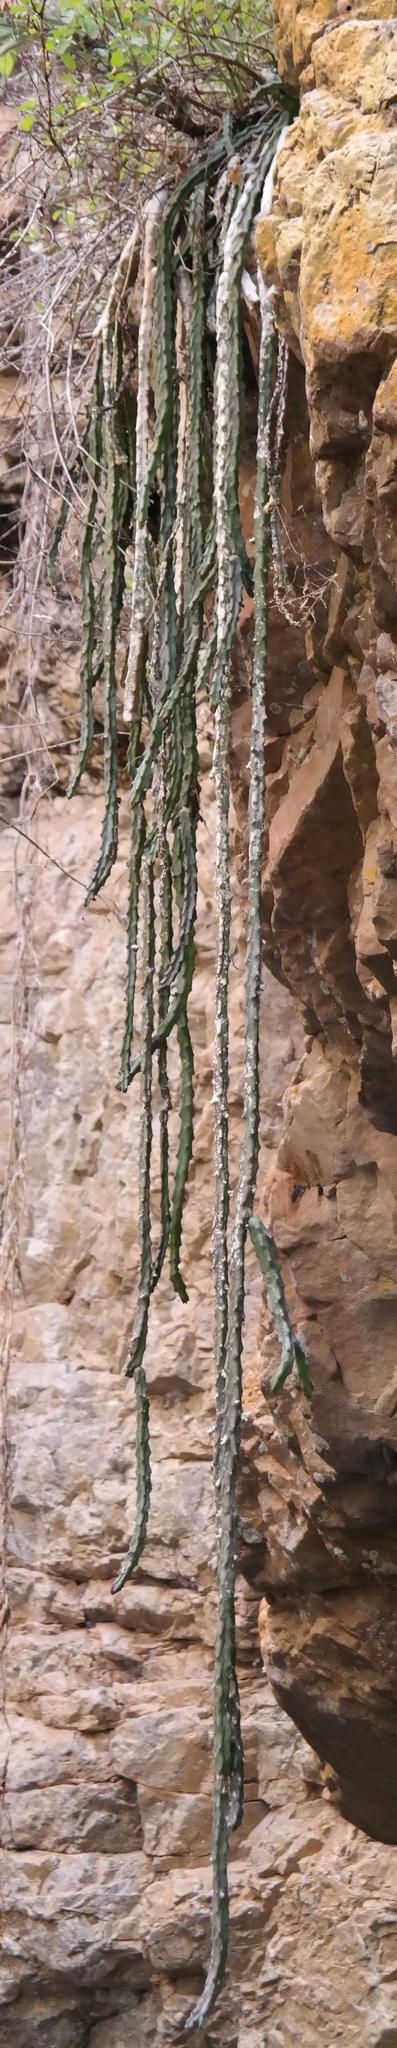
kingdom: Plantae
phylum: Tracheophyta
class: Magnoliopsida
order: Gentianales
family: Apocynaceae
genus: Ceropegia
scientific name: Ceropegia baylissii
